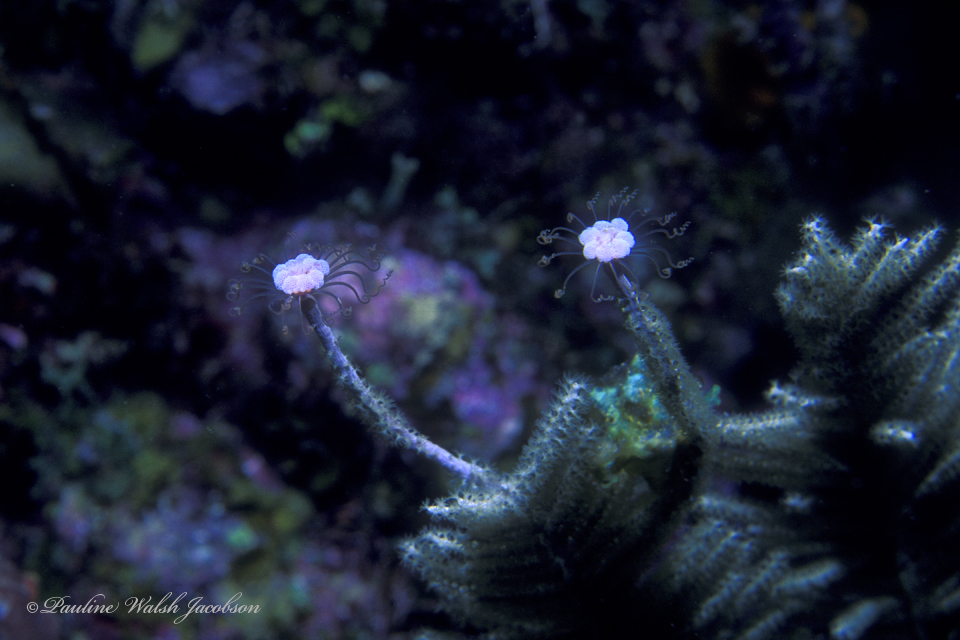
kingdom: Animalia
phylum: Cnidaria
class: Hydrozoa
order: Anthoathecata
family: Tubulariidae
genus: Ralpharia
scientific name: Ralpharia gorgoniae
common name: Solitary gorgonian hydroid
